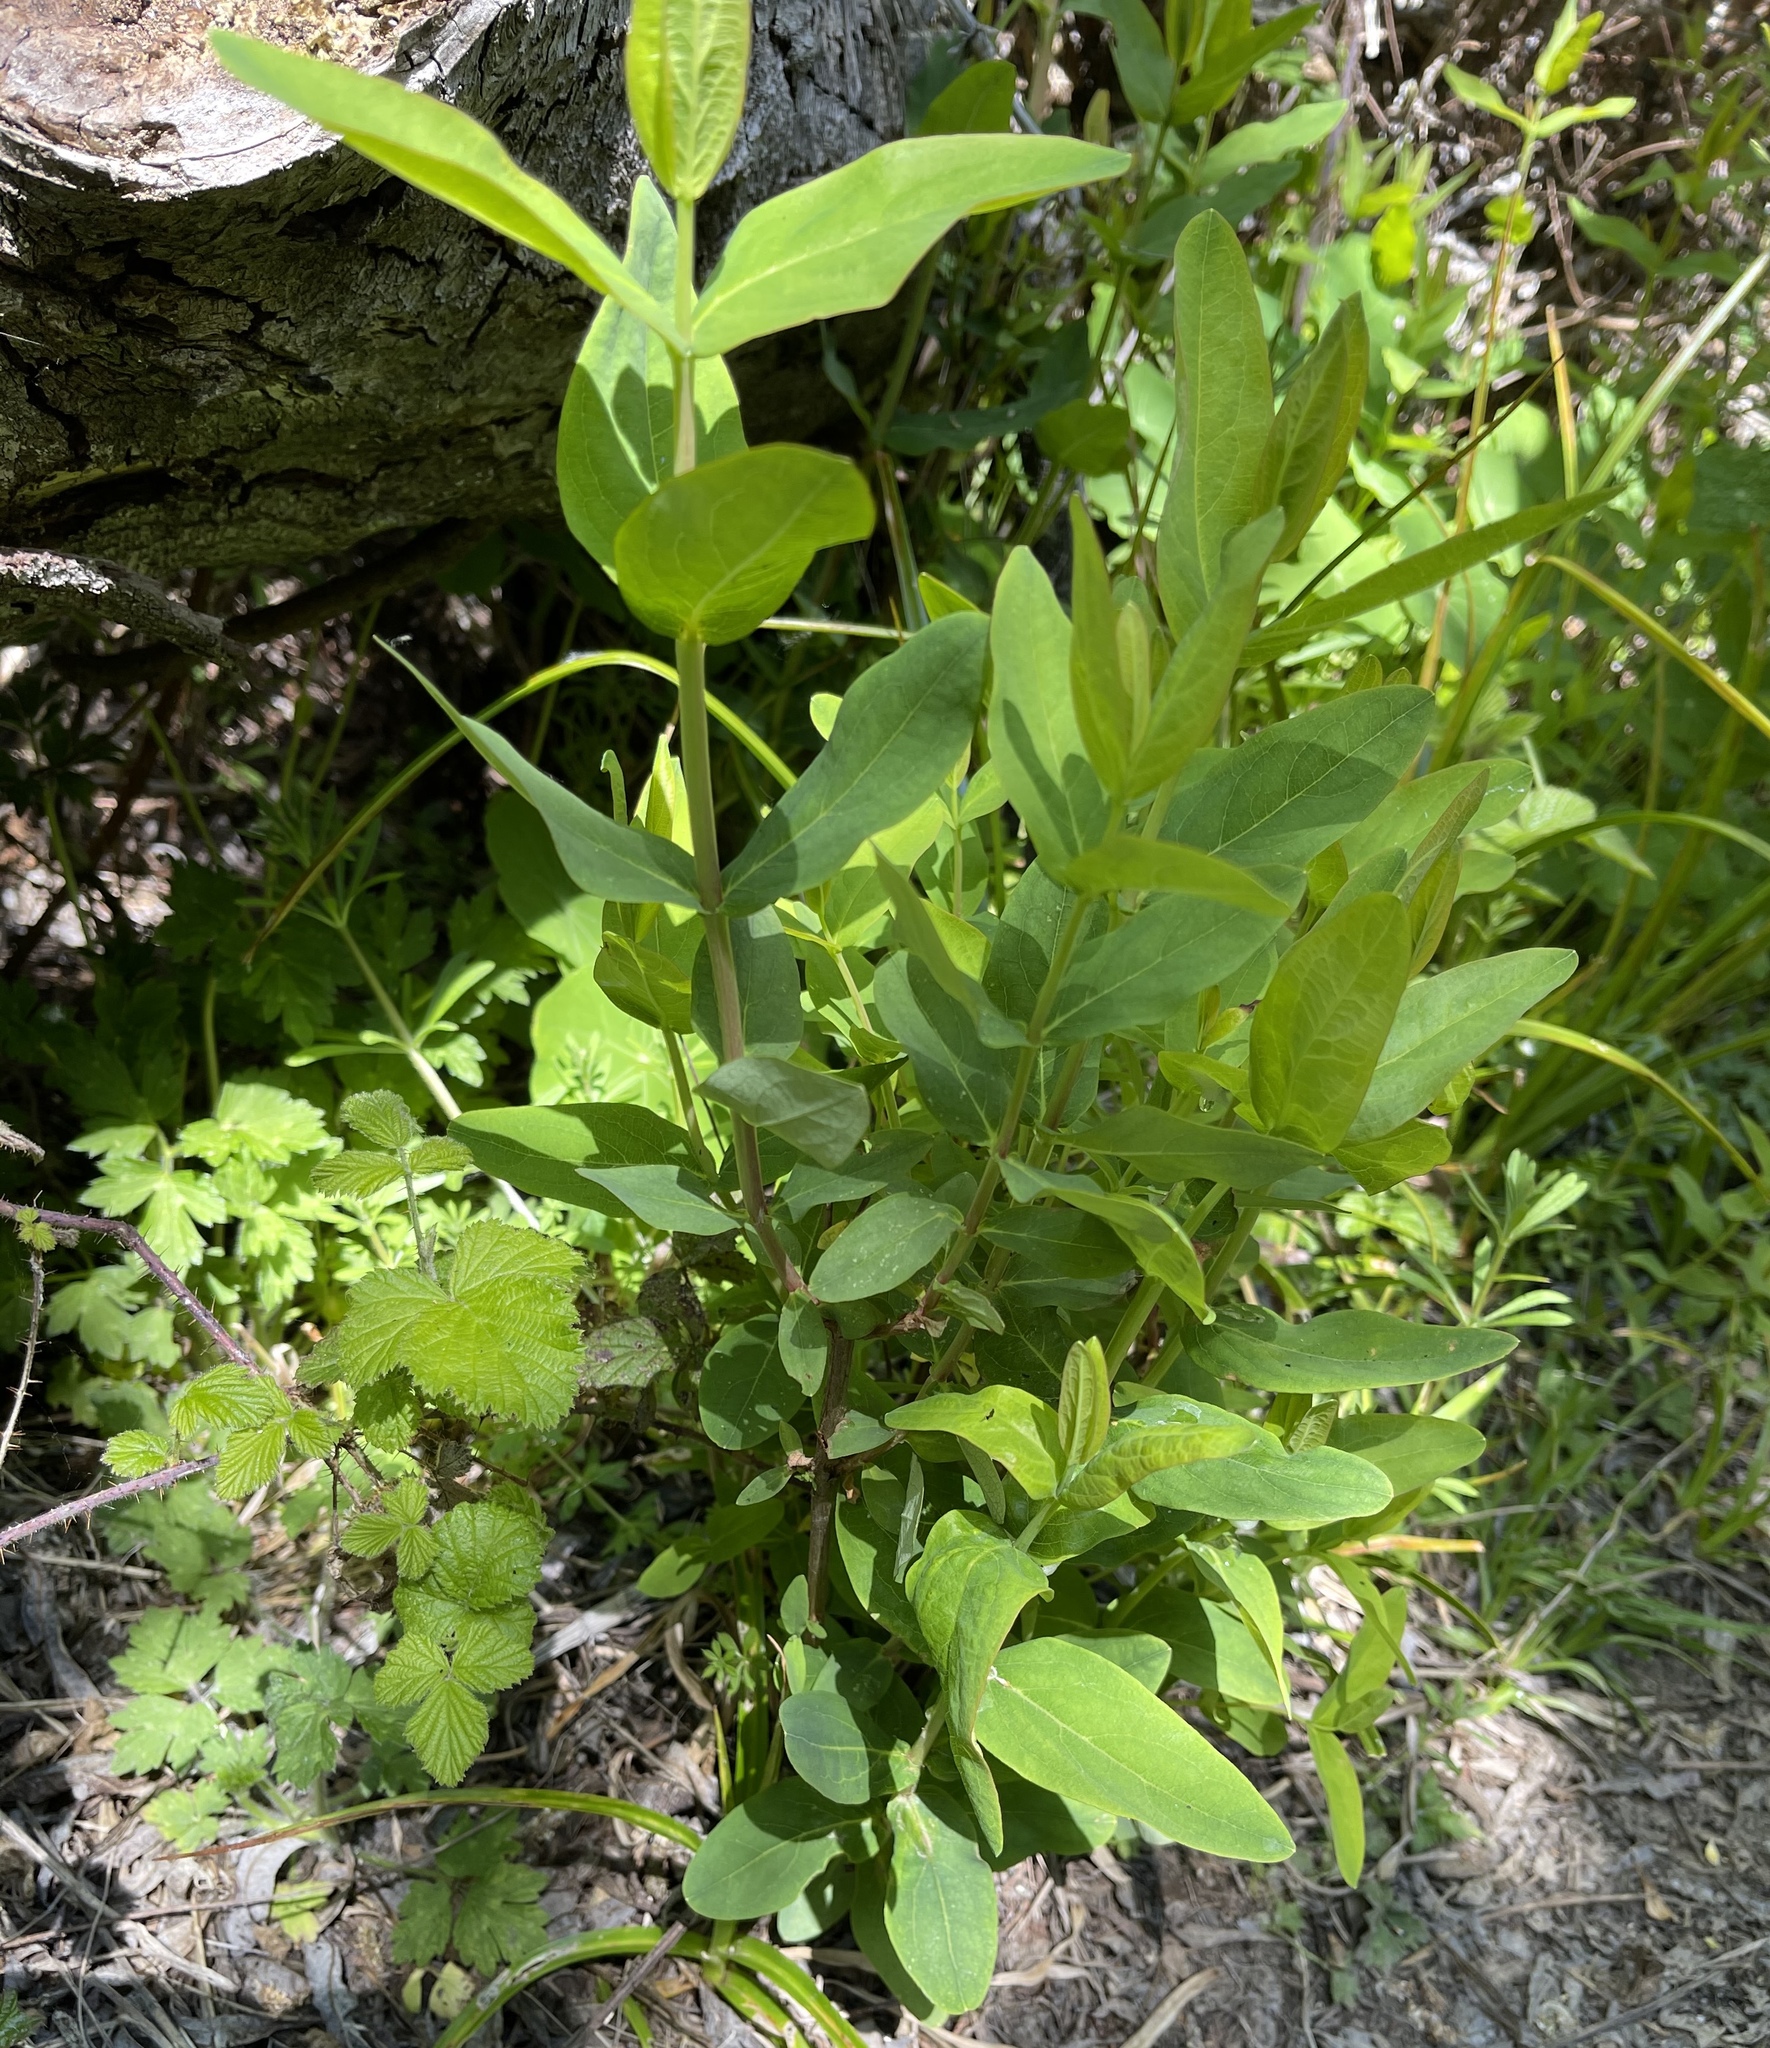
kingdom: Plantae
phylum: Tracheophyta
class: Magnoliopsida
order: Dipsacales
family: Caprifoliaceae
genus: Lonicera
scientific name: Lonicera involucrata
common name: Californian honeysuckle
